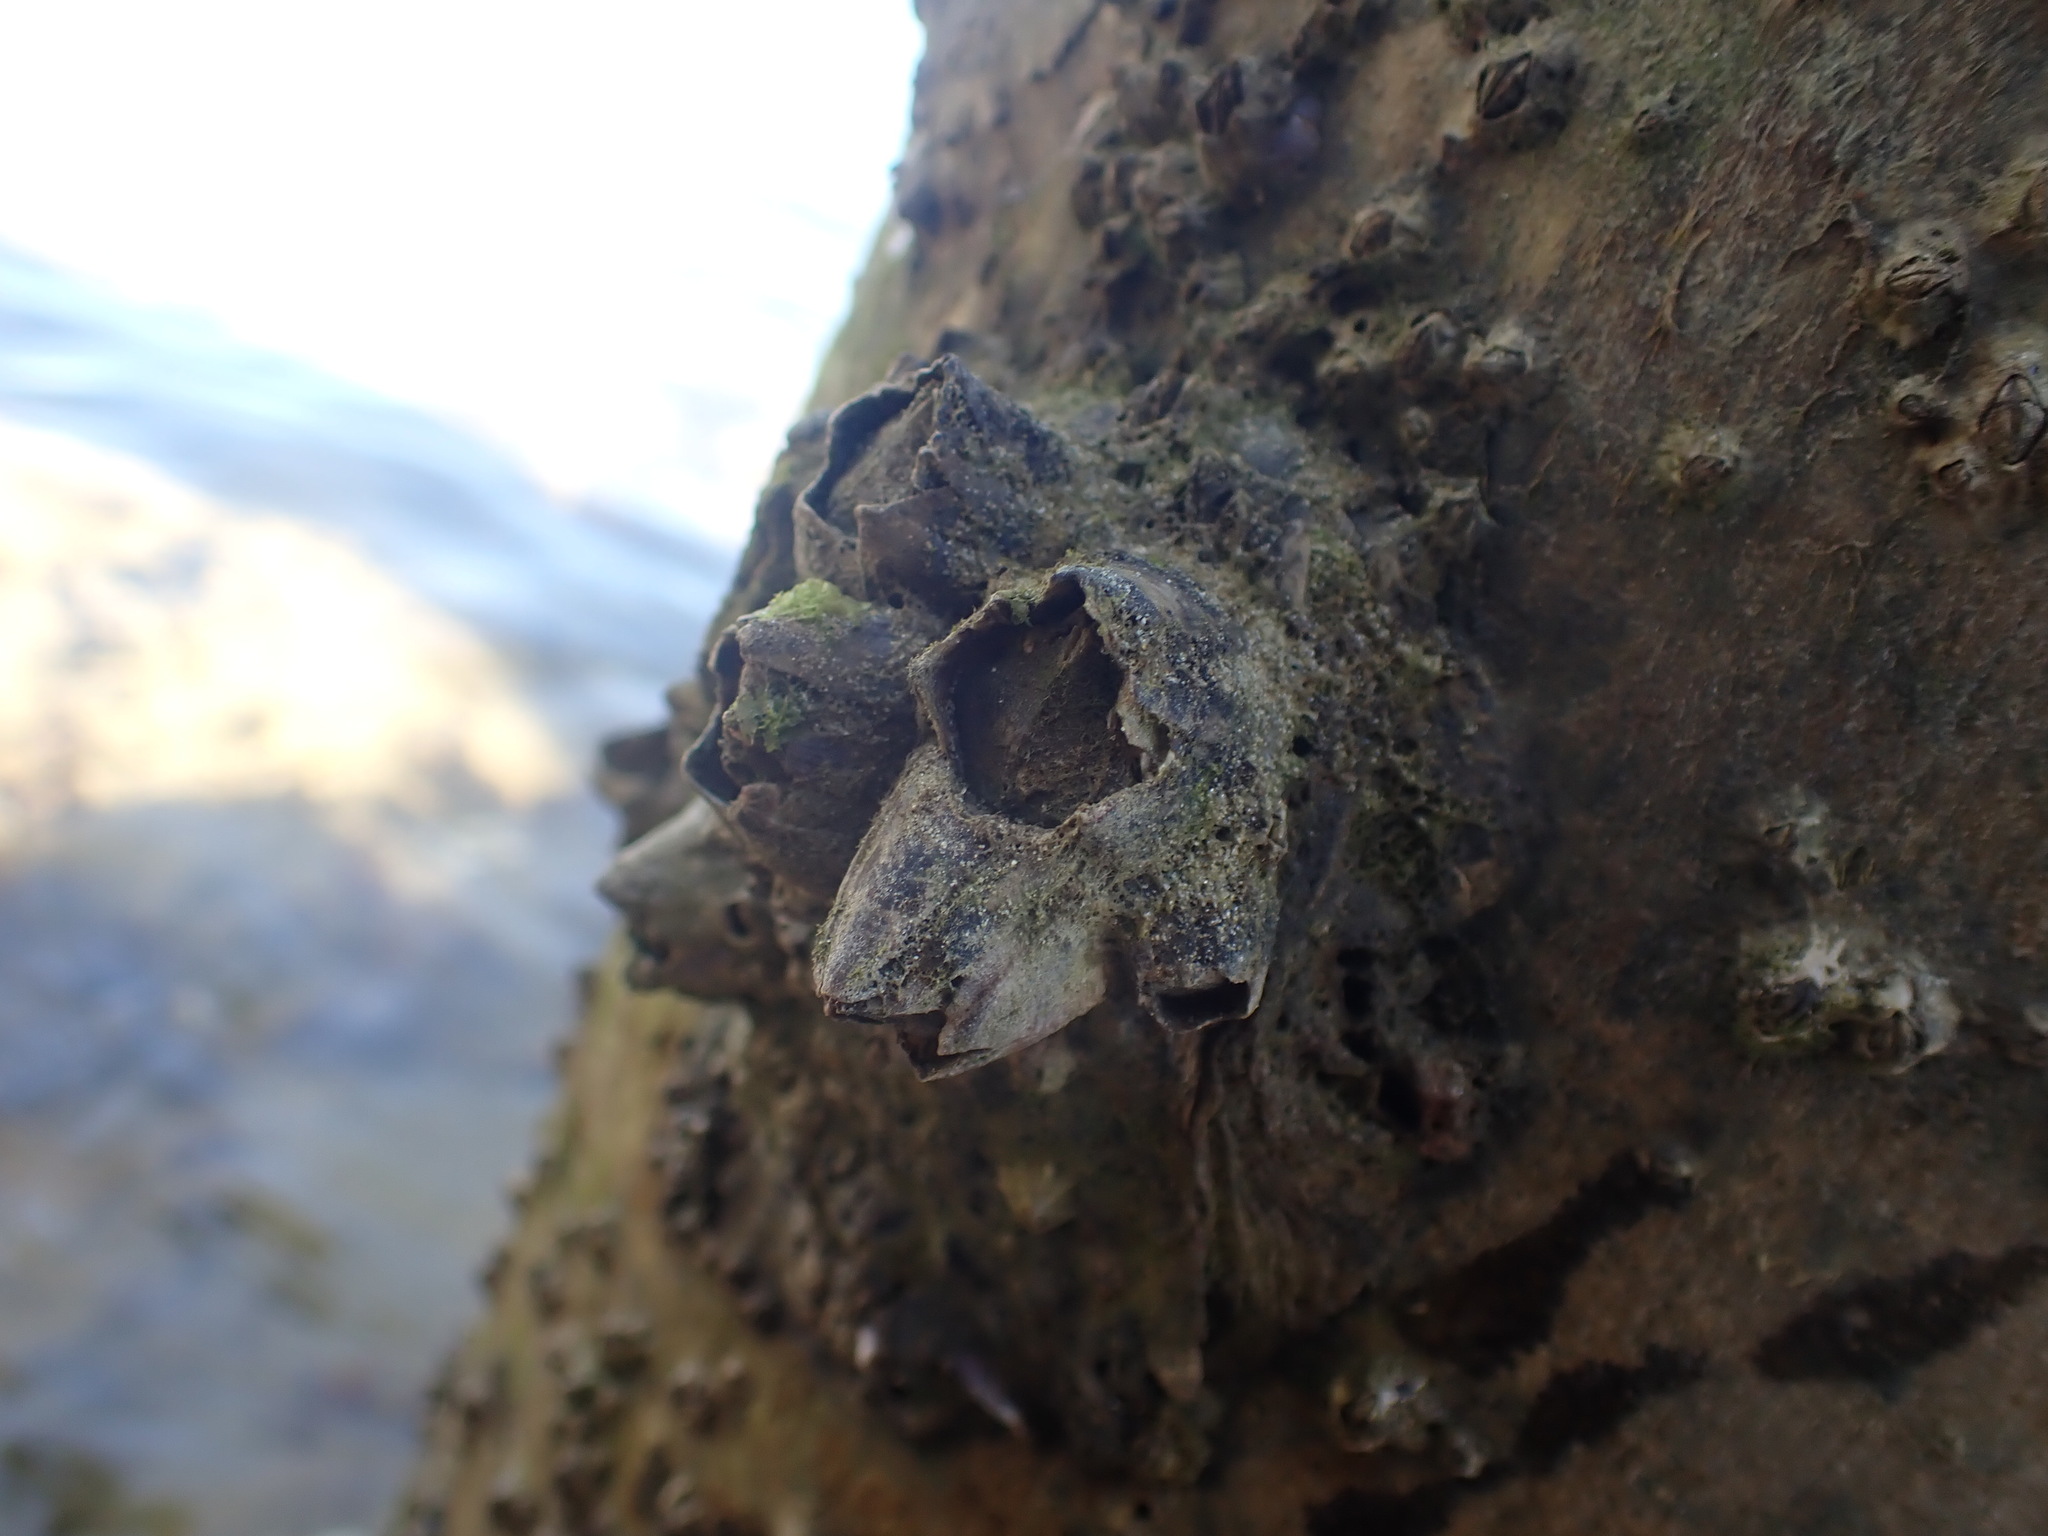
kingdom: Animalia
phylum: Arthropoda
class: Maxillopoda
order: Sessilia
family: Balanidae
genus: Notomegabalanus
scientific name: Notomegabalanus decorus
